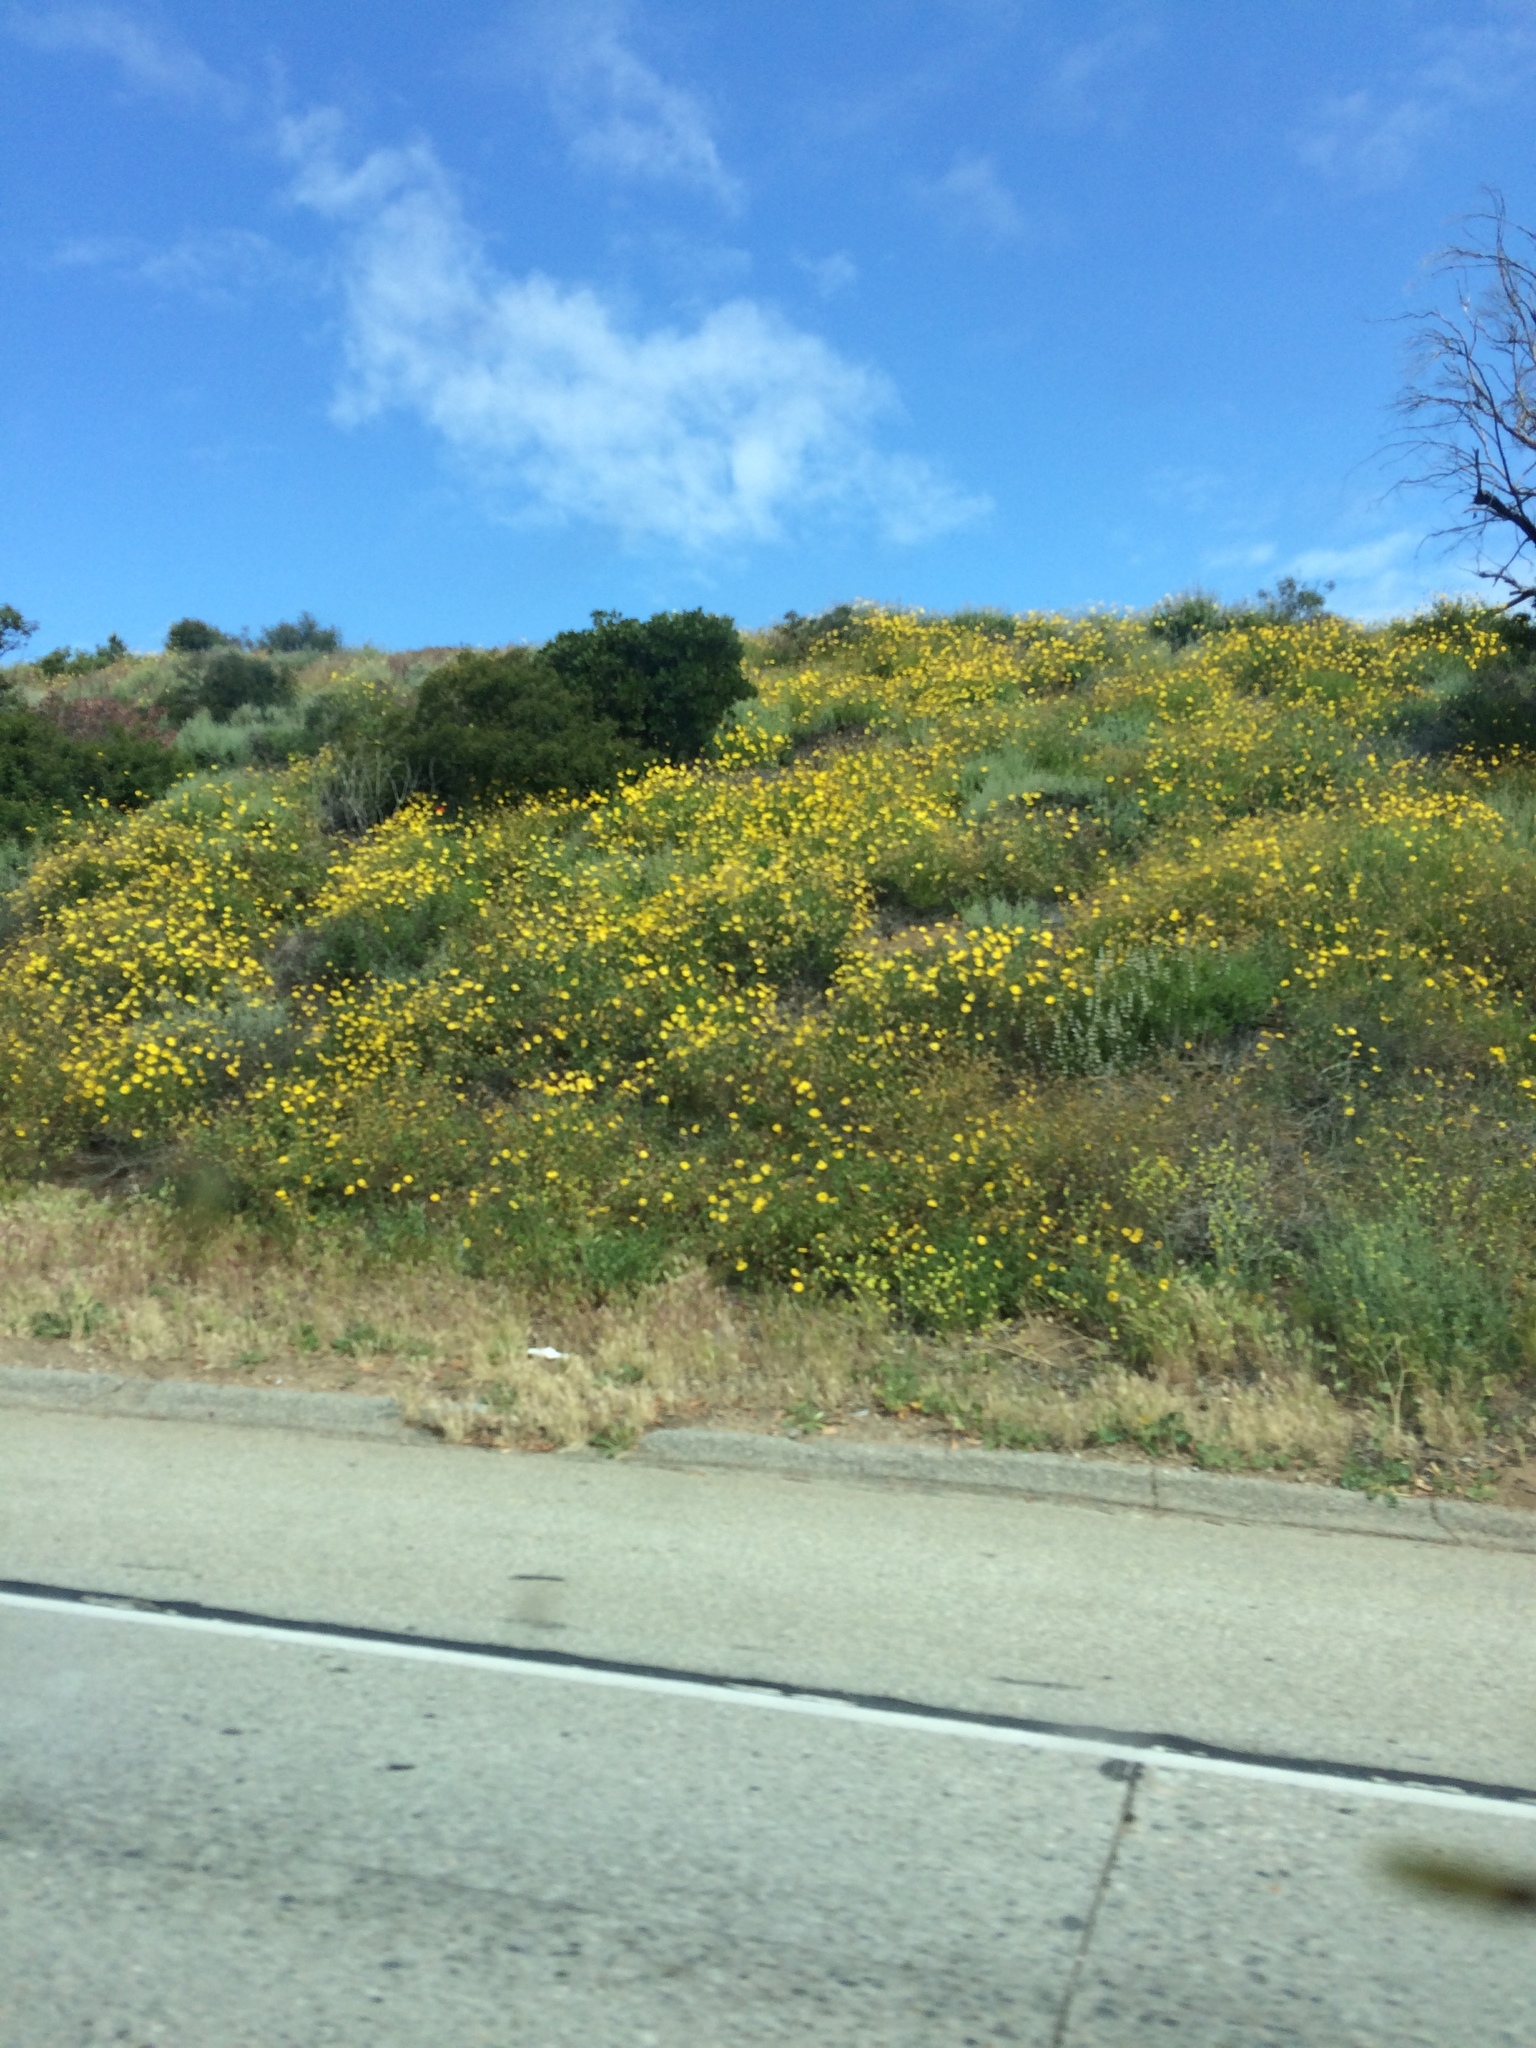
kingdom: Plantae
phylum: Tracheophyta
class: Magnoliopsida
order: Asterales
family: Asteraceae
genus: Encelia
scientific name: Encelia californica
